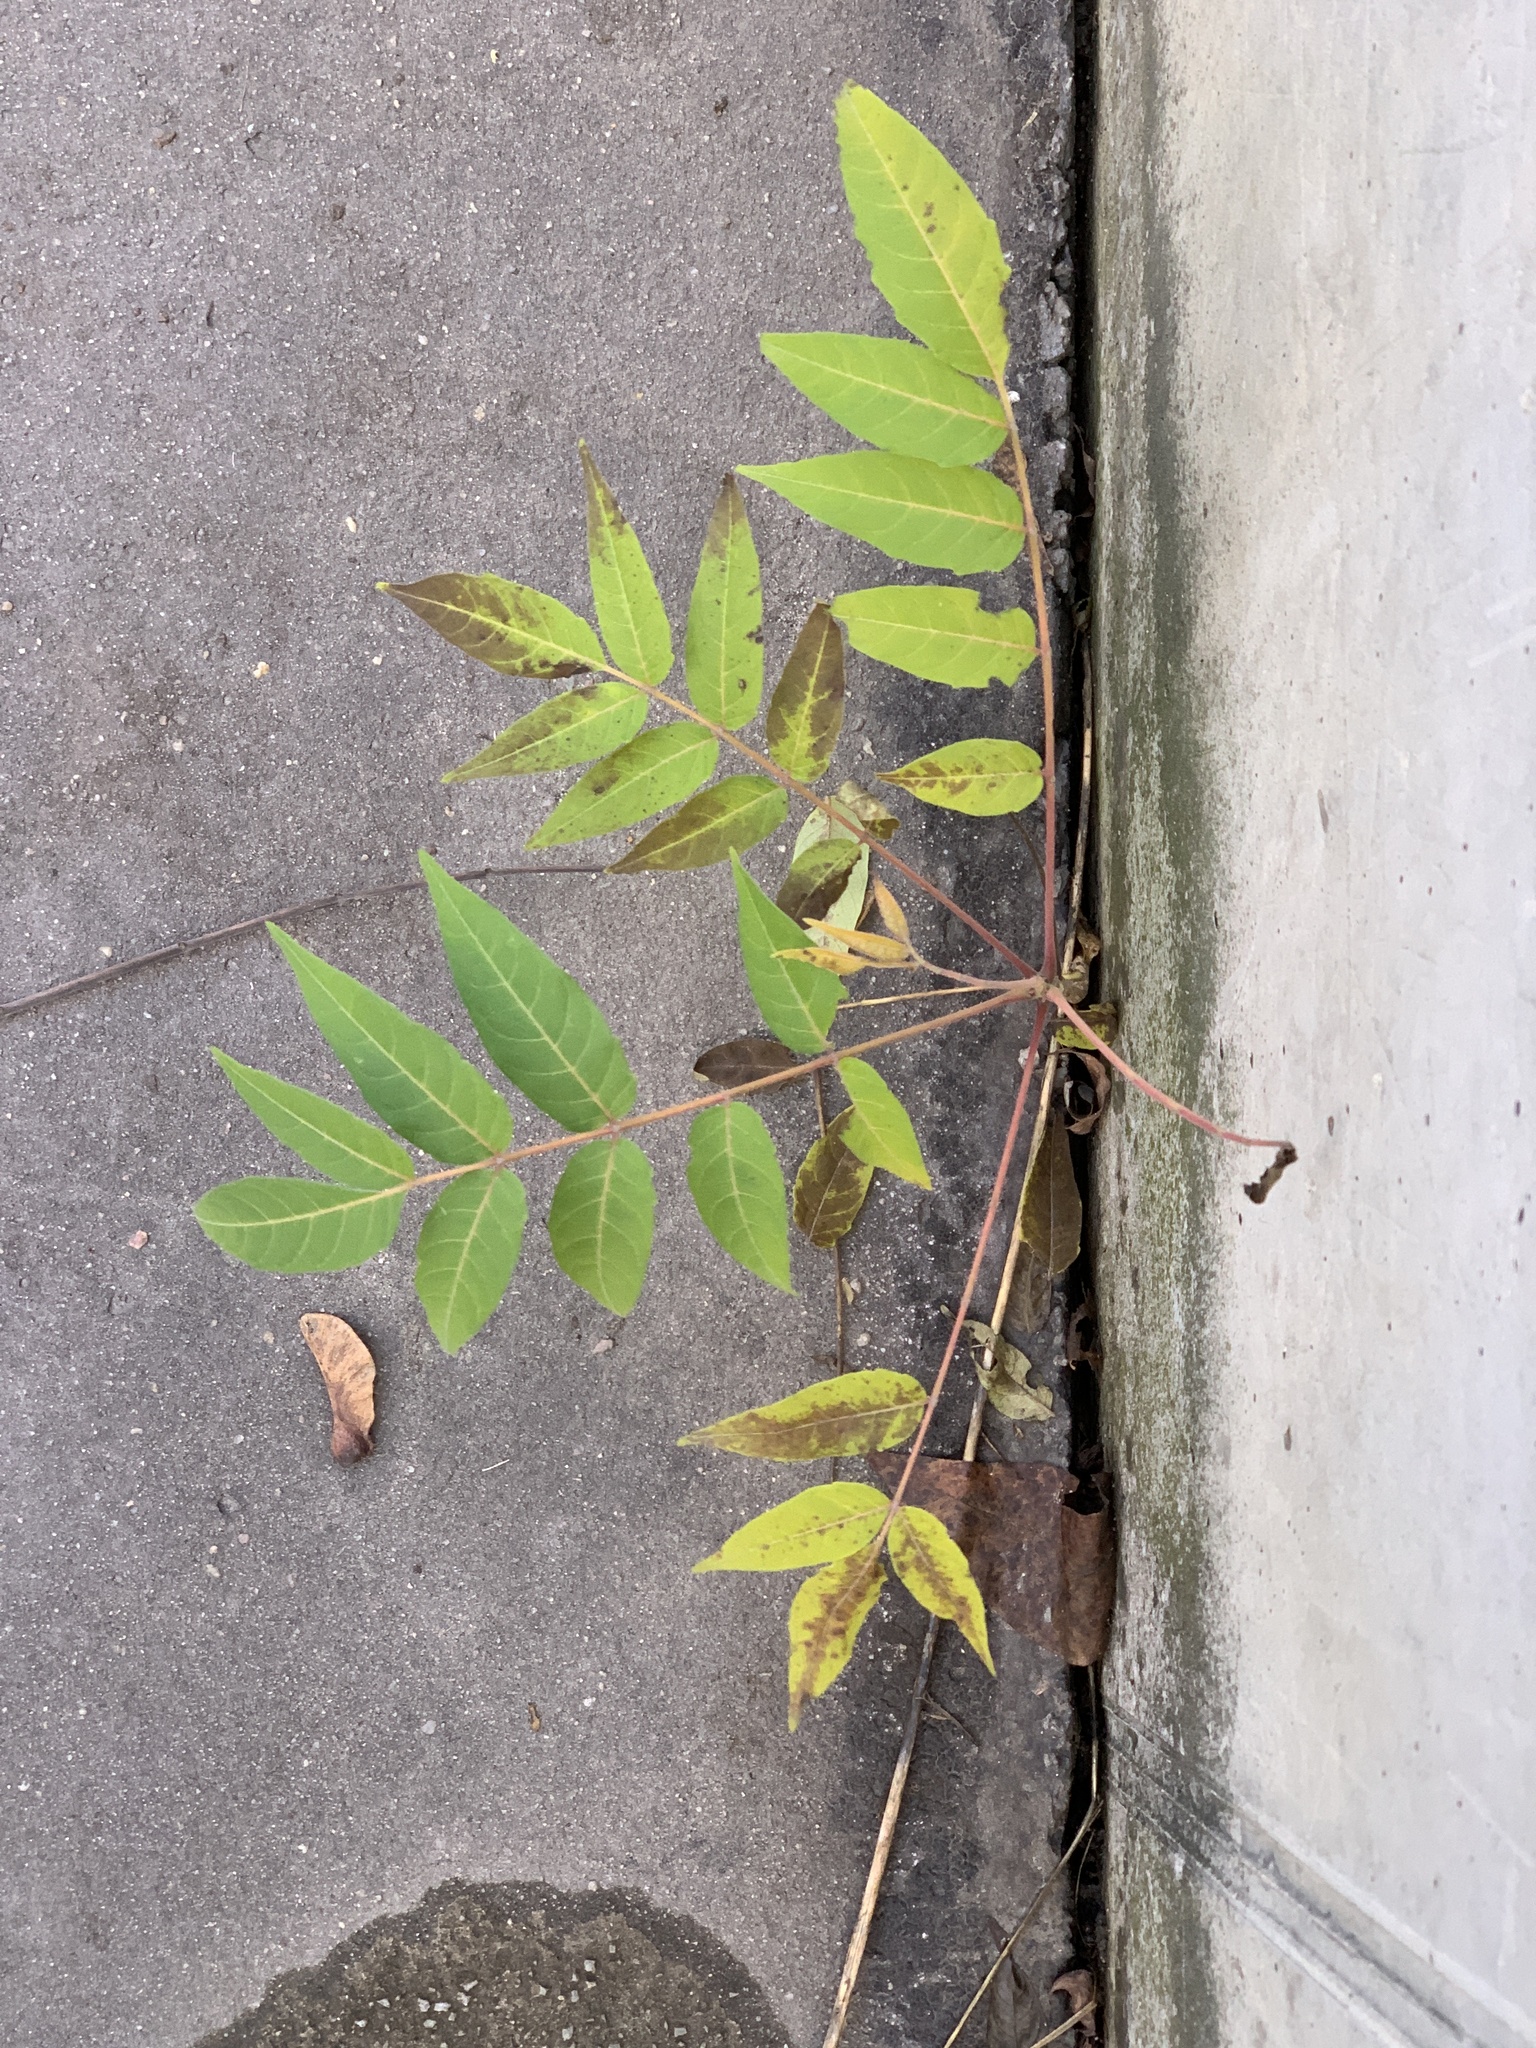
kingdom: Plantae
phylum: Tracheophyta
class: Magnoliopsida
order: Sapindales
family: Simaroubaceae
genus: Ailanthus
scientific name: Ailanthus altissima
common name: Tree-of-heaven
